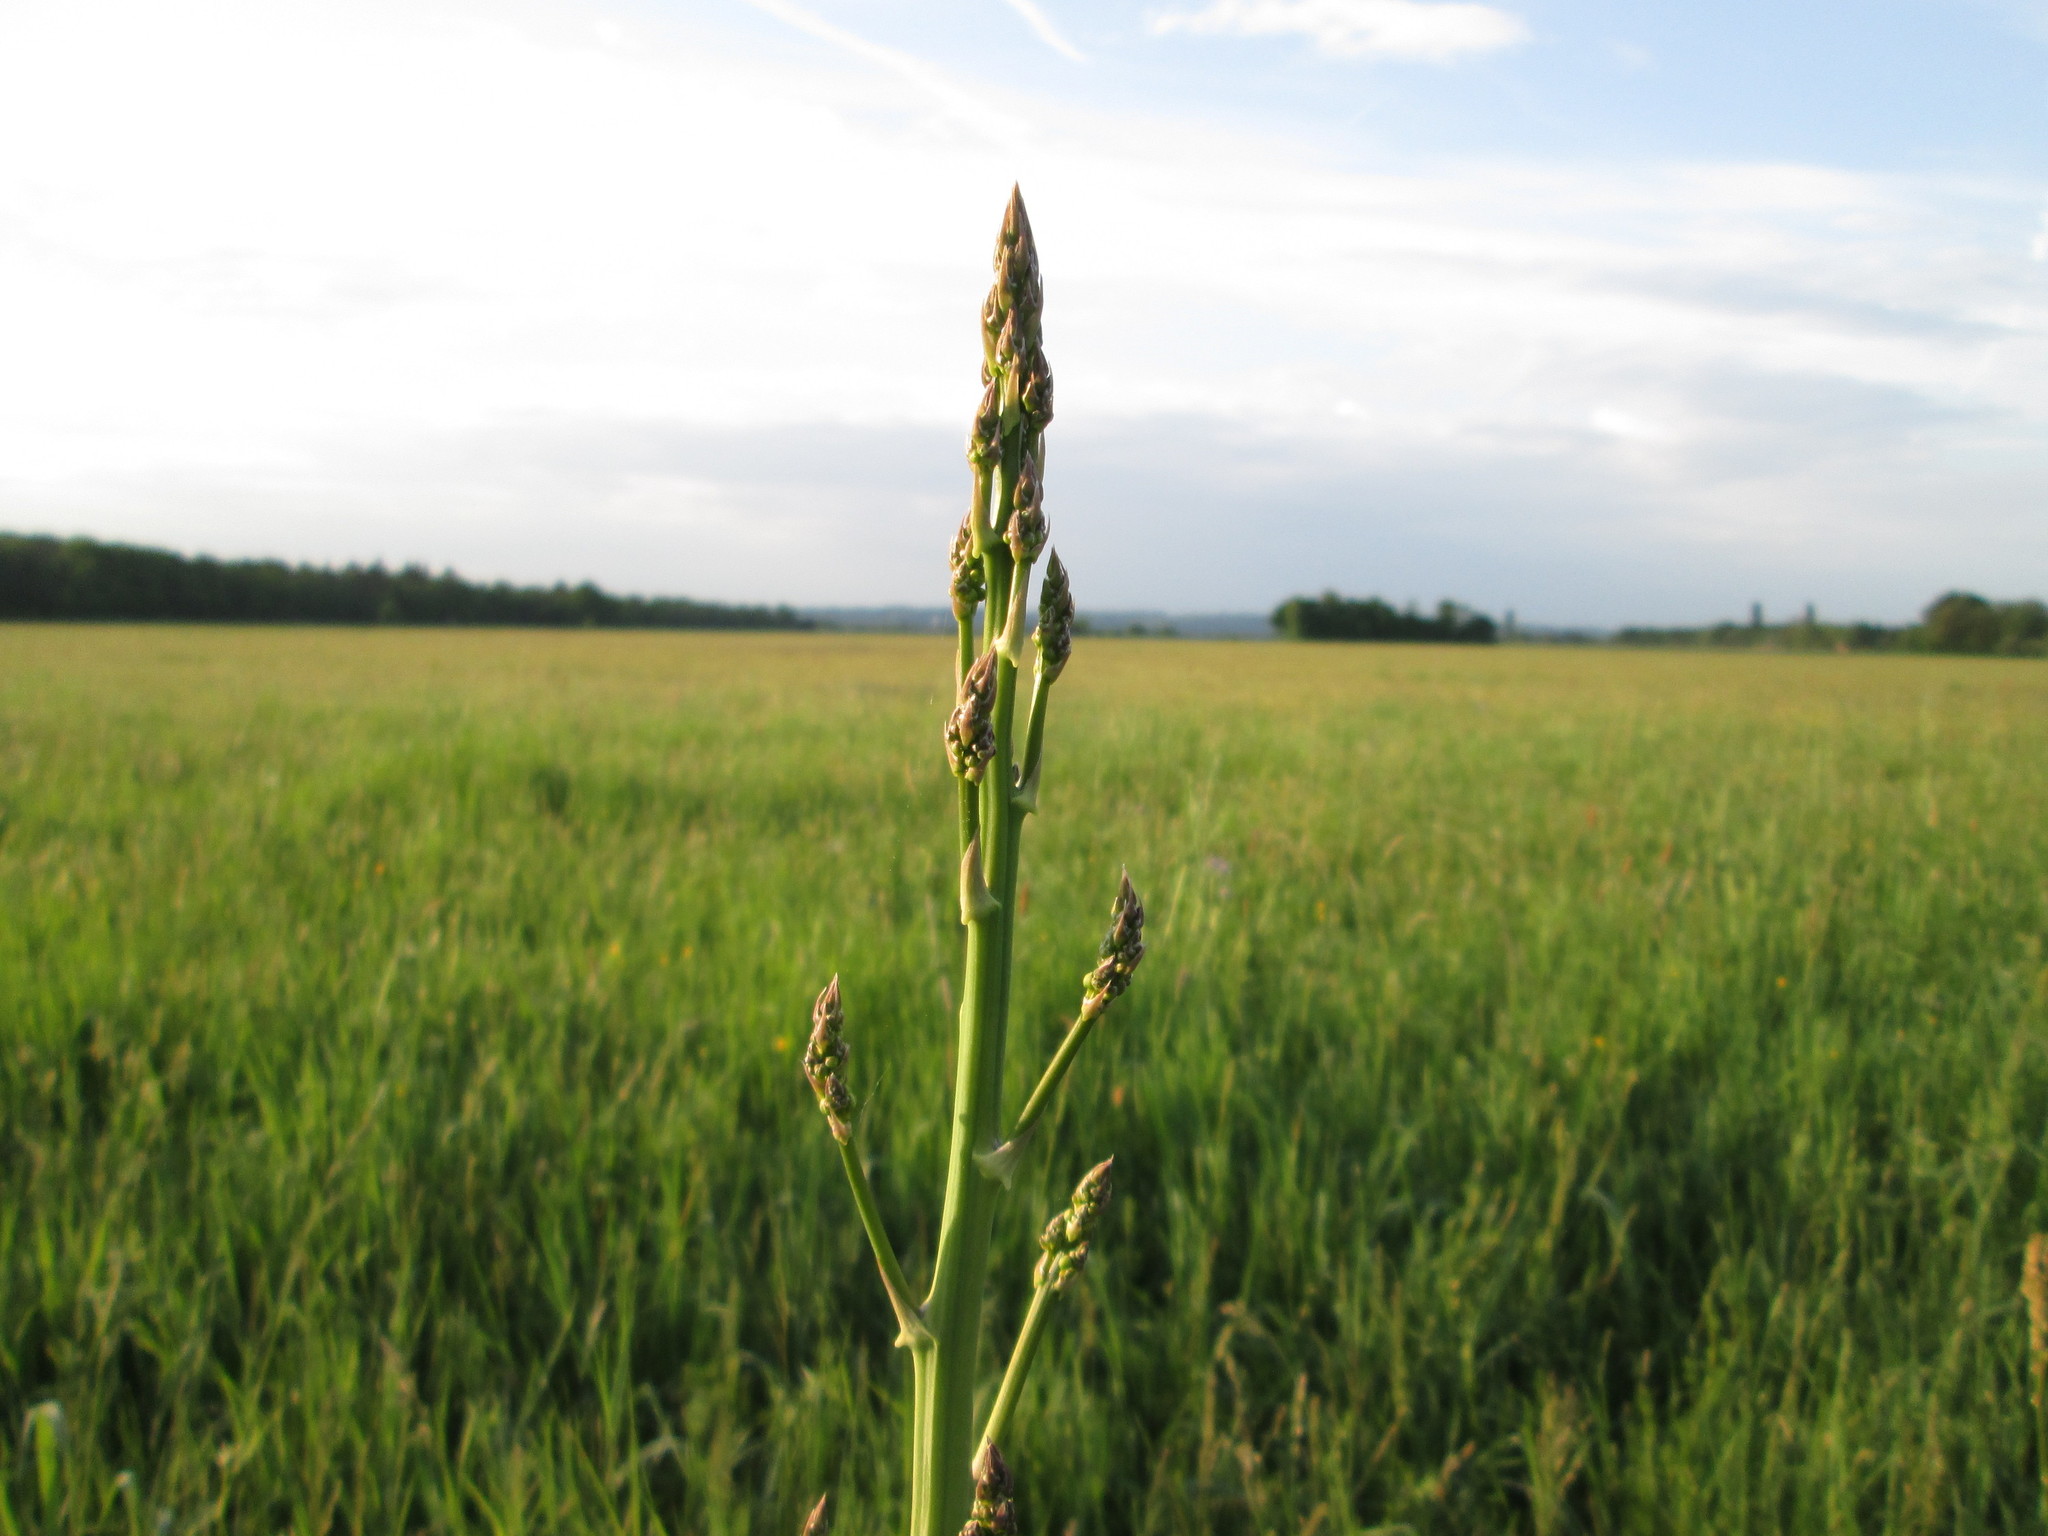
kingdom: Plantae
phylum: Tracheophyta
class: Liliopsida
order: Asparagales
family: Asparagaceae
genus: Asparagus
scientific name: Asparagus officinalis
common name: Garden asparagus
